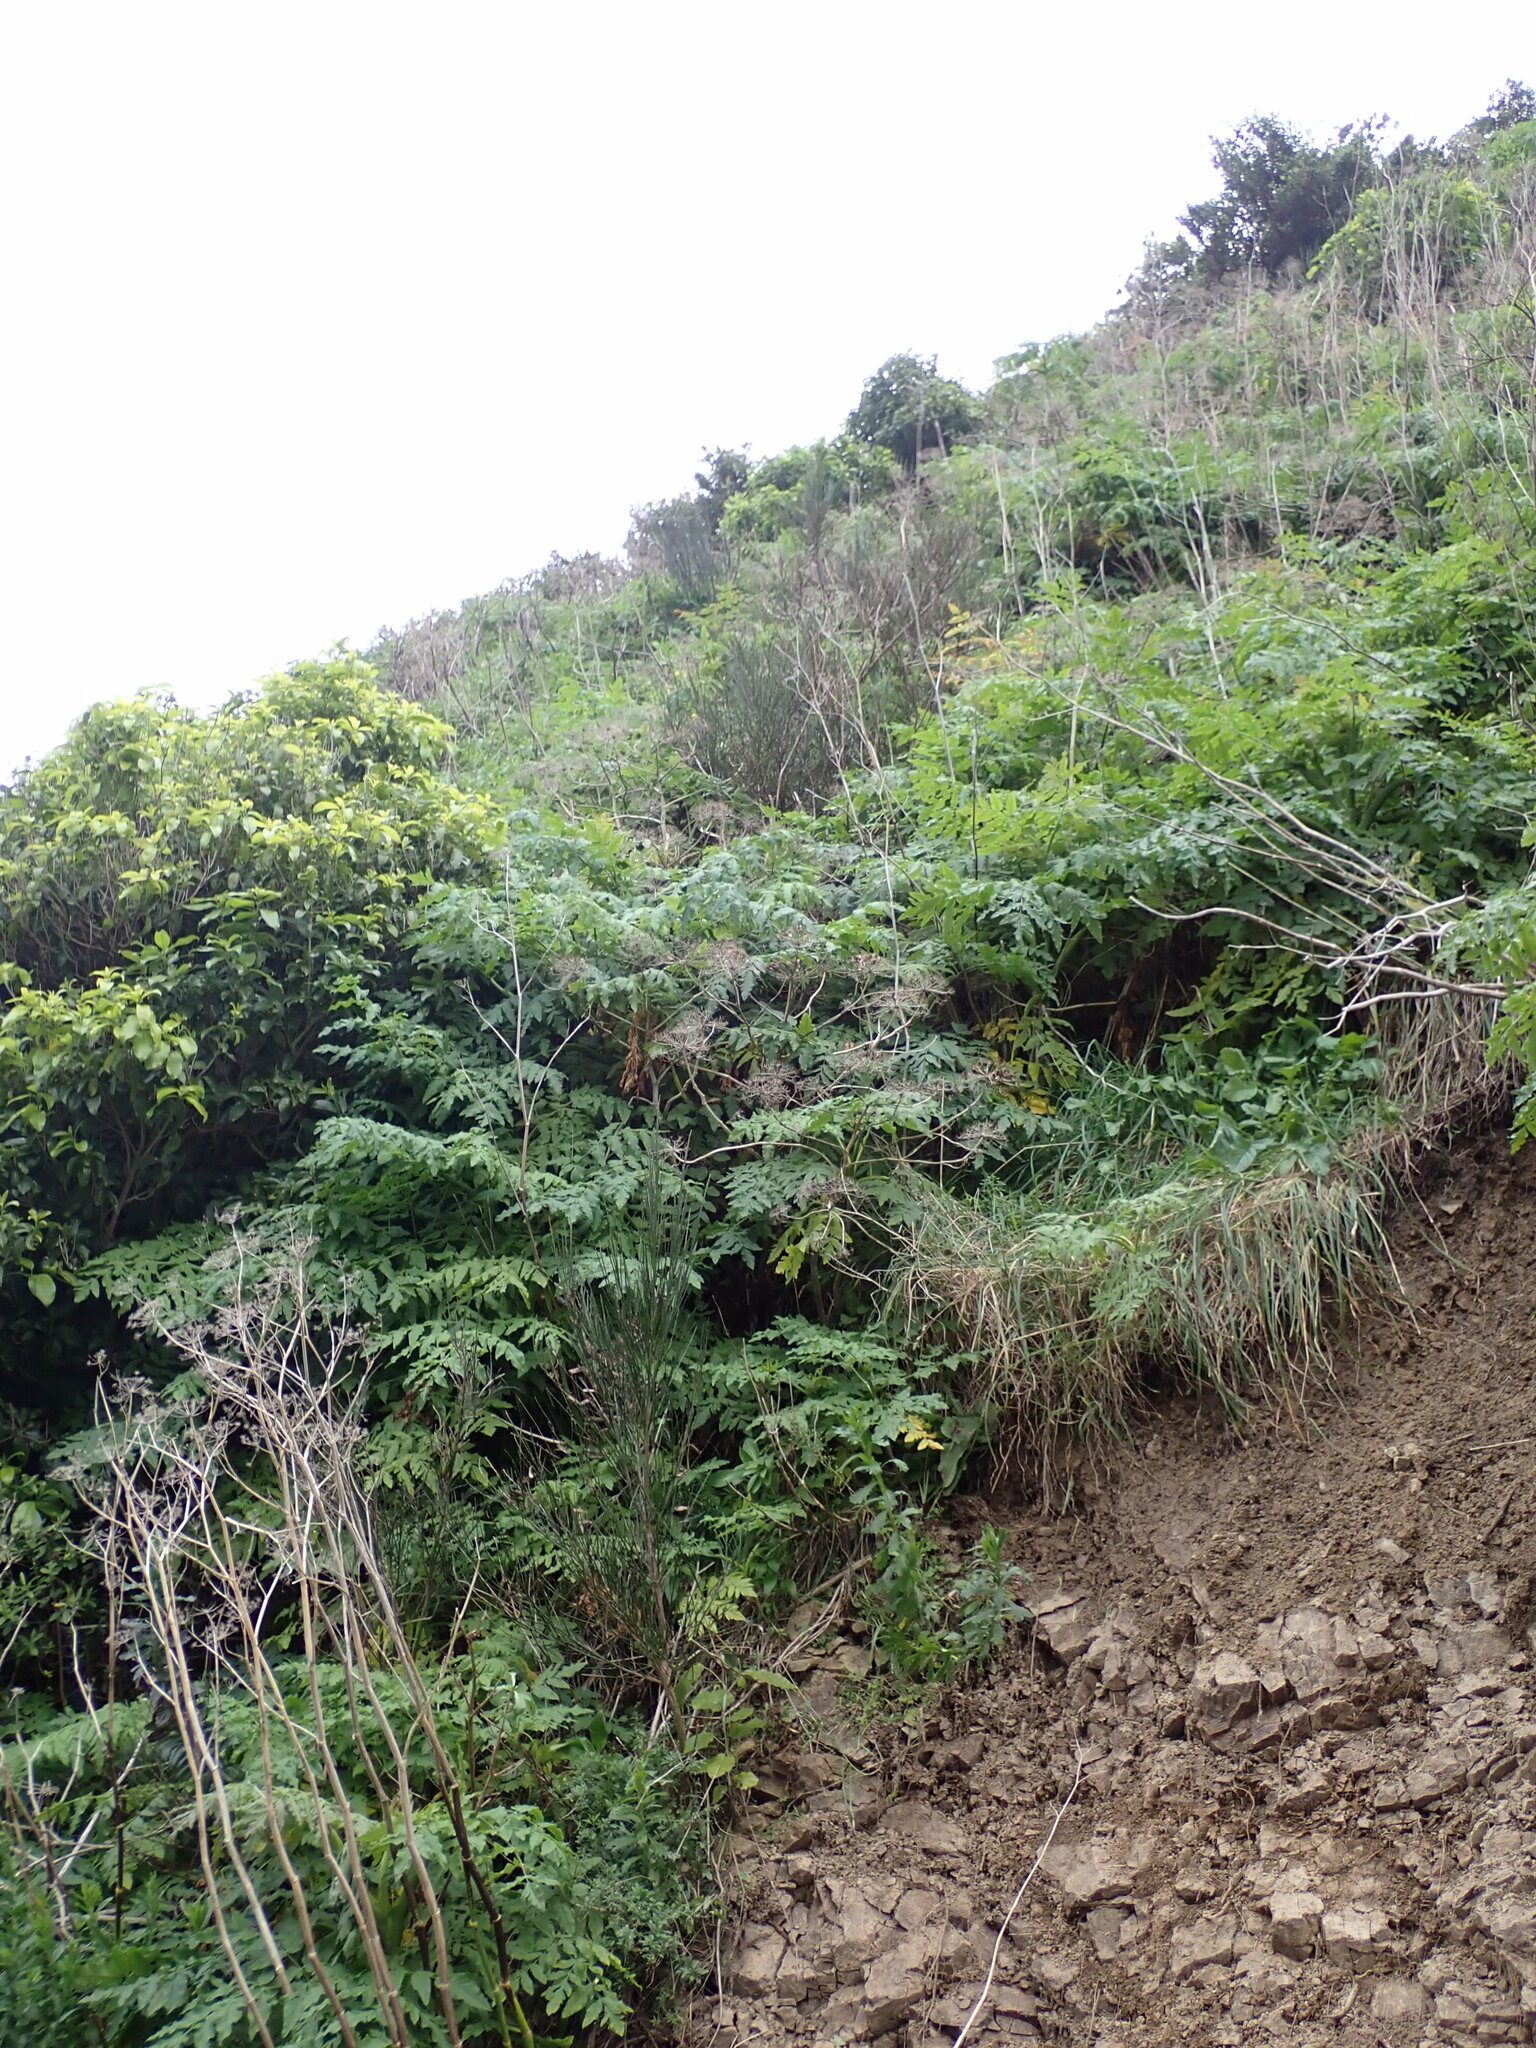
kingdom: Plantae
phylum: Tracheophyta
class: Magnoliopsida
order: Apiales
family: Apiaceae
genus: Daucus
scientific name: Daucus decipiens
